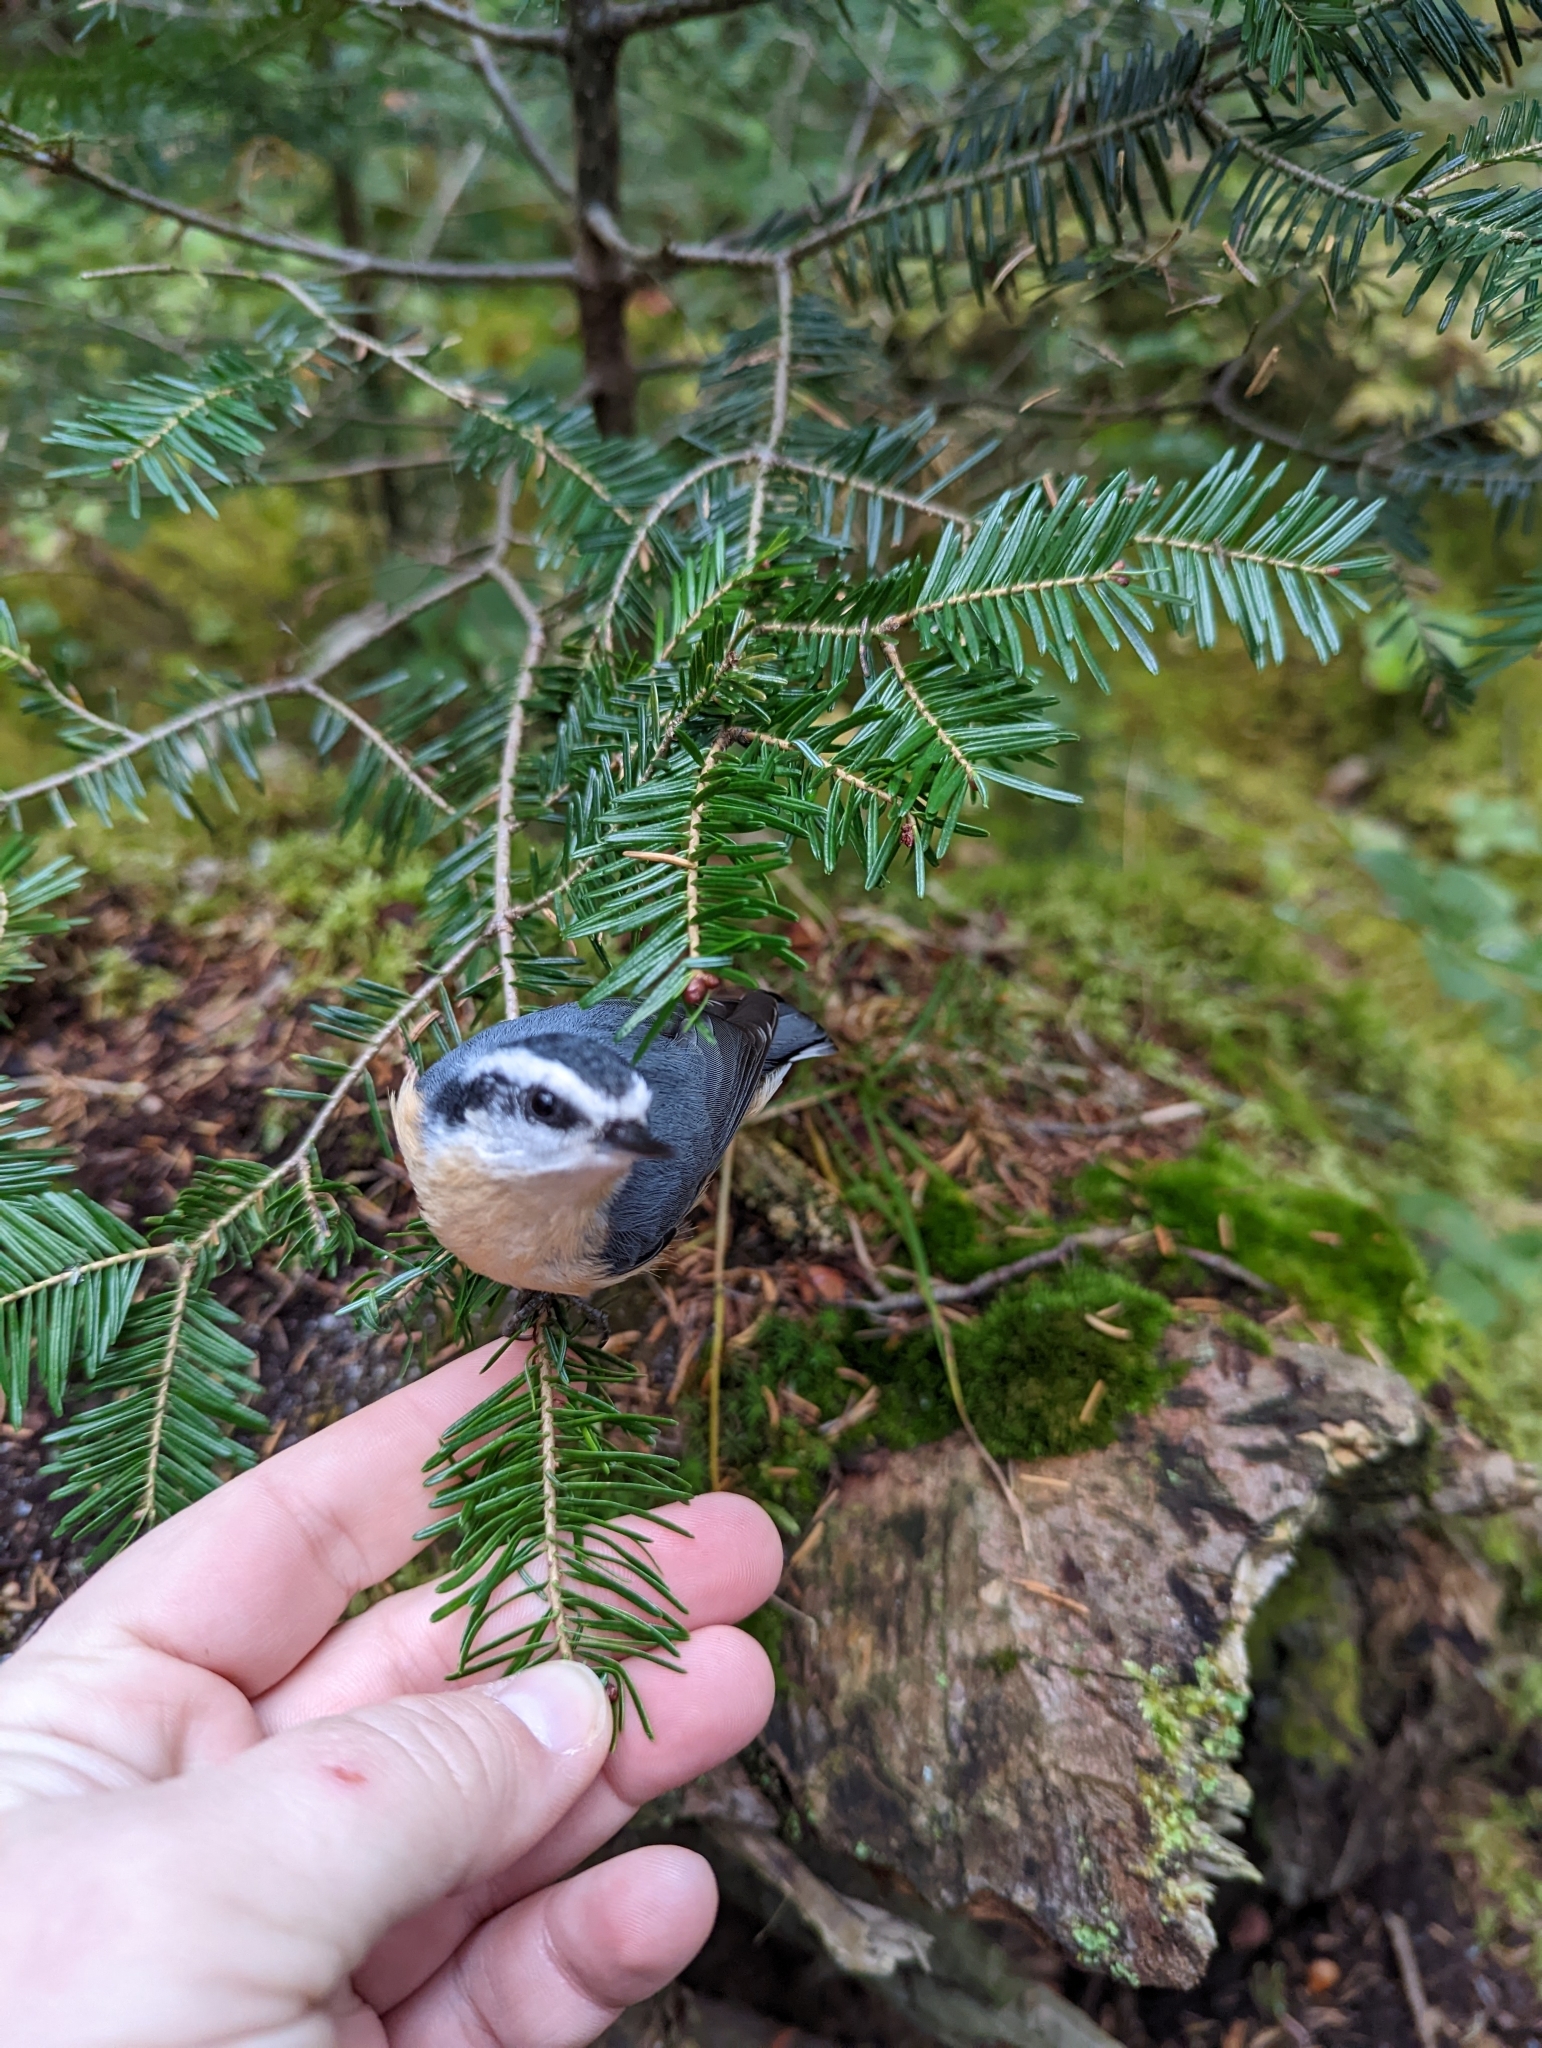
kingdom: Animalia
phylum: Chordata
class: Aves
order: Passeriformes
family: Sittidae
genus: Sitta
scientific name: Sitta canadensis
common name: Red-breasted nuthatch
